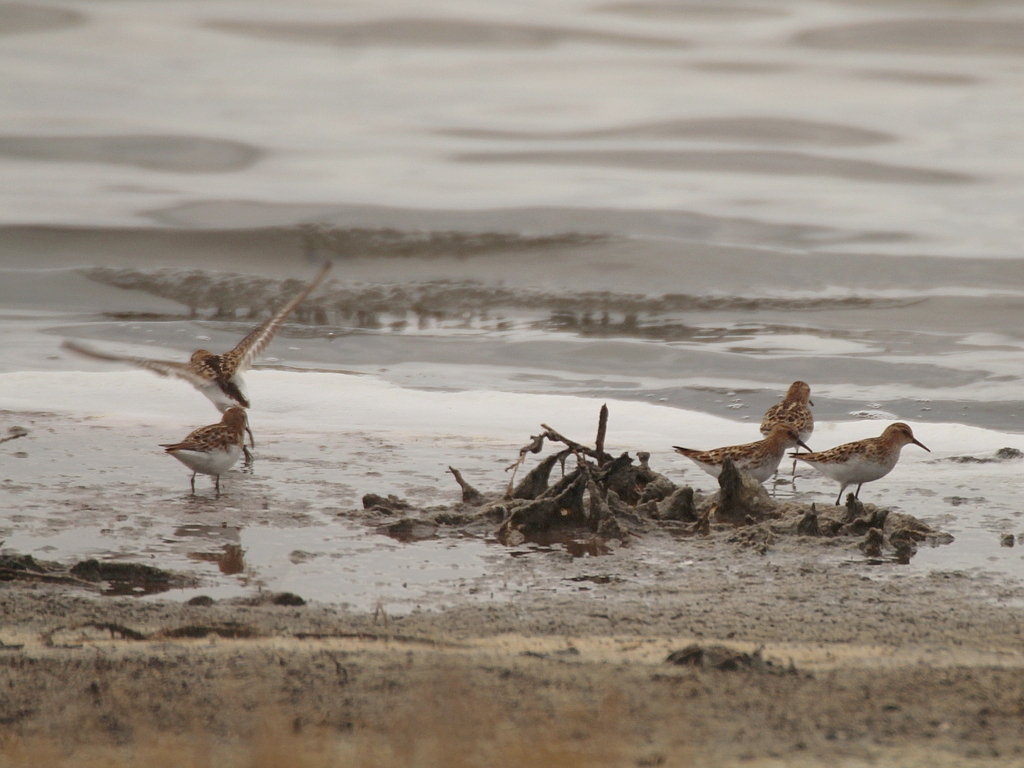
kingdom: Animalia
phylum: Chordata
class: Aves
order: Charadriiformes
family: Scolopacidae
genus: Calidris
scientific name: Calidris minuta
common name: Little stint
